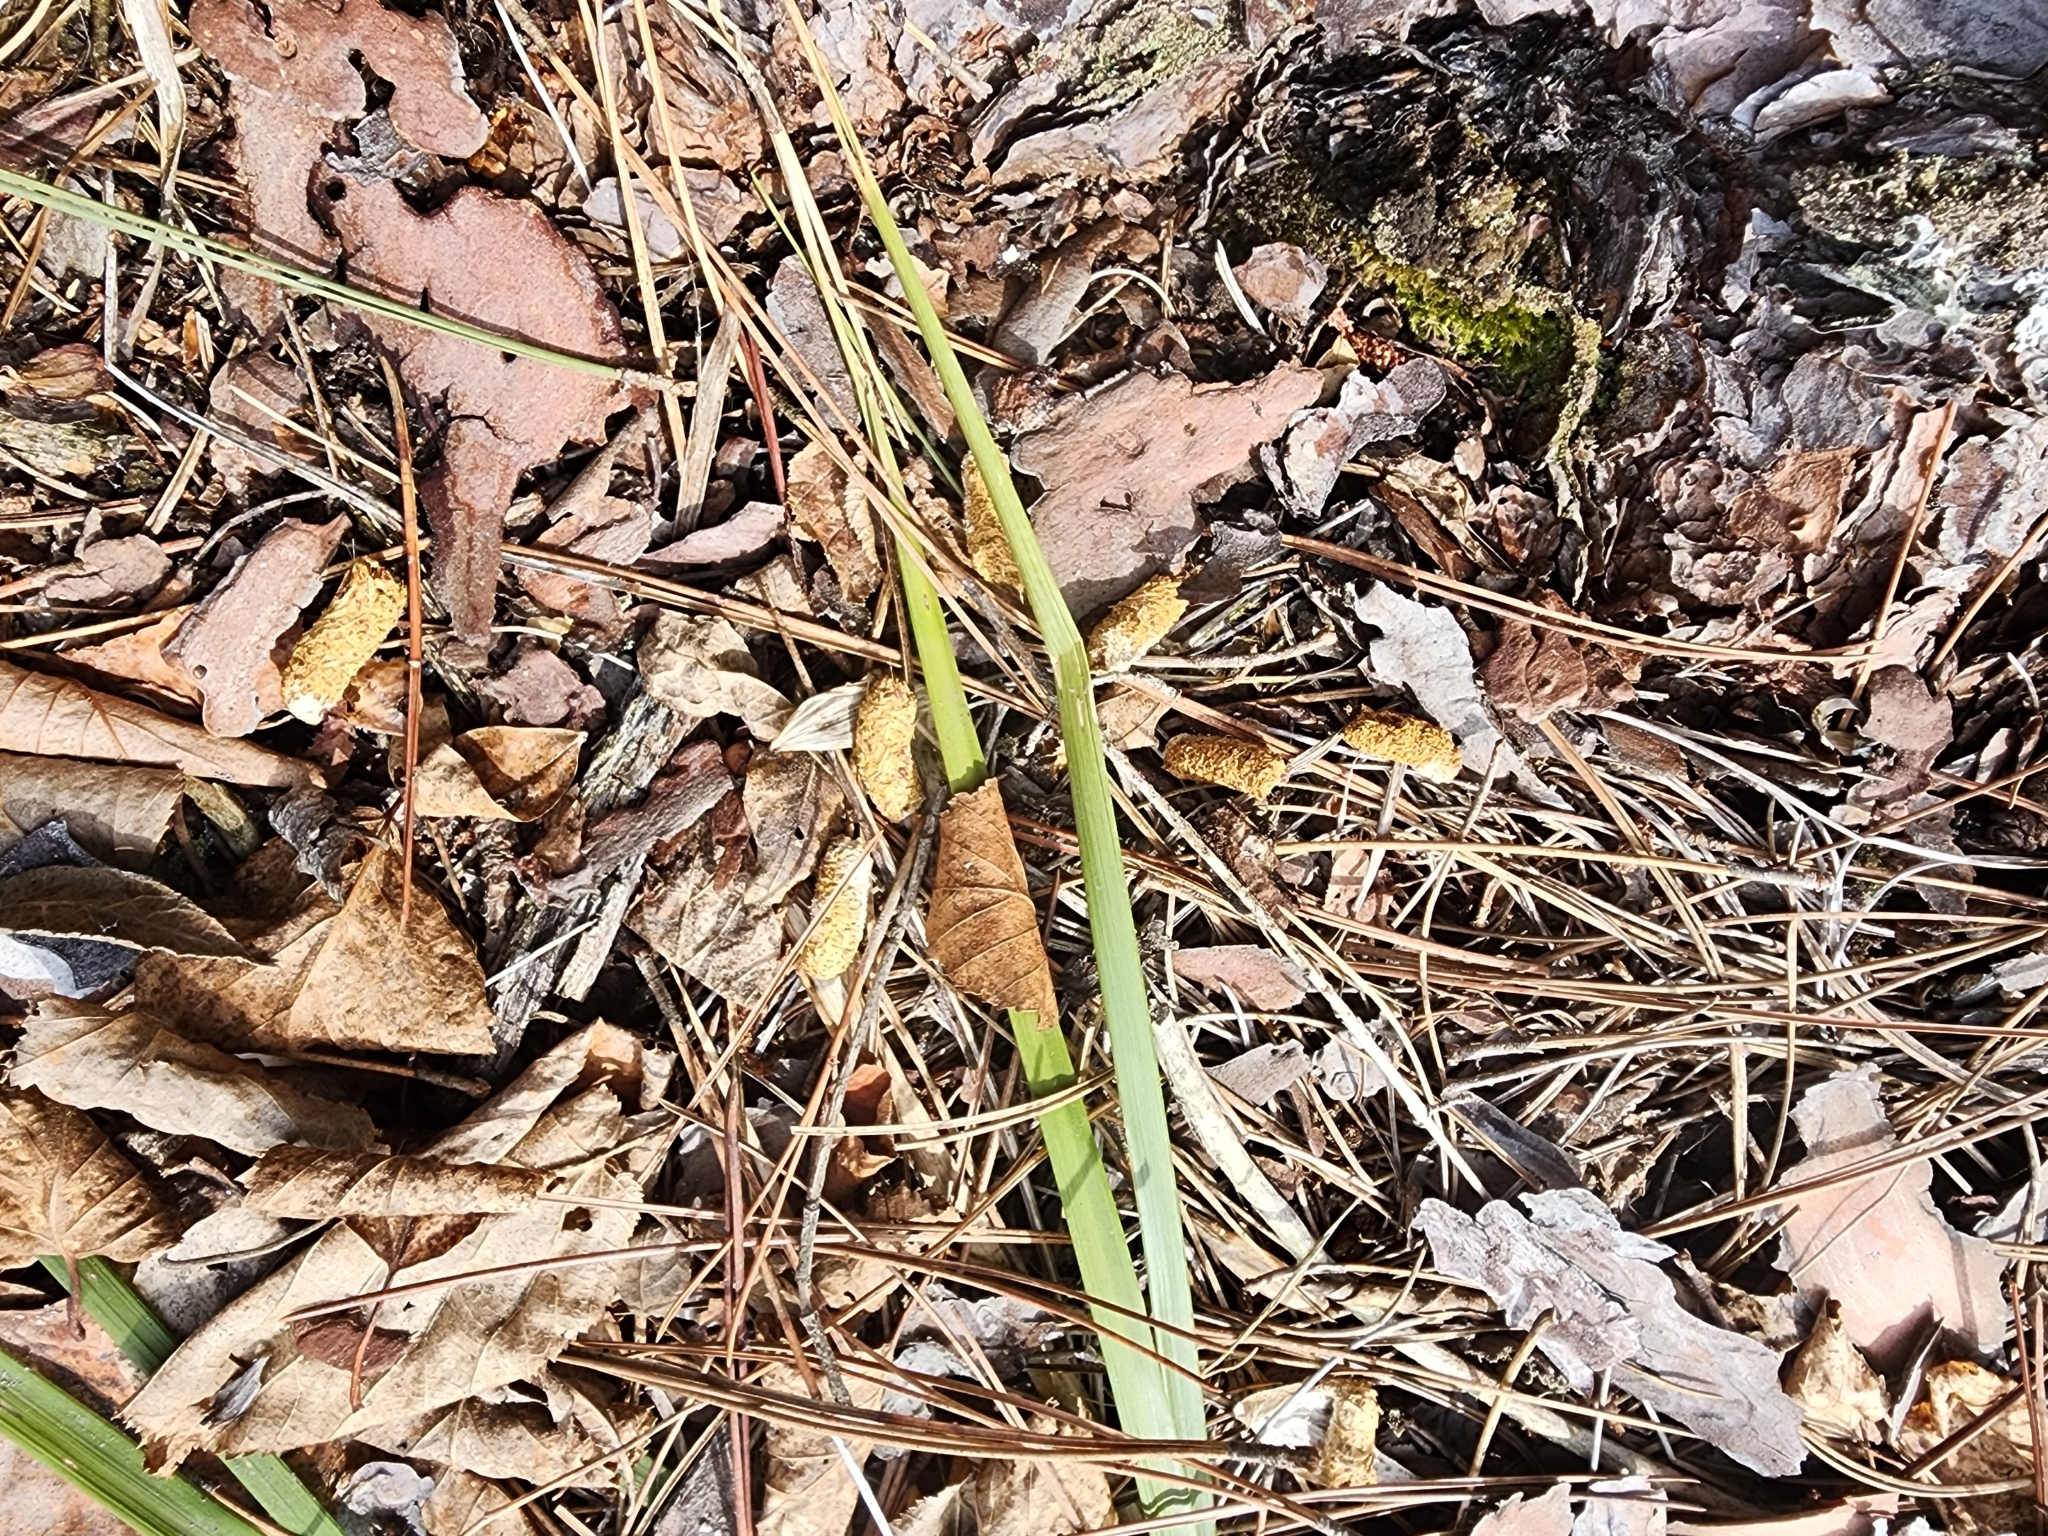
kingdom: Animalia
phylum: Chordata
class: Aves
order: Galliformes
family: Phasianidae
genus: Bonasa
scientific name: Bonasa umbellus
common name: Ruffed grouse
